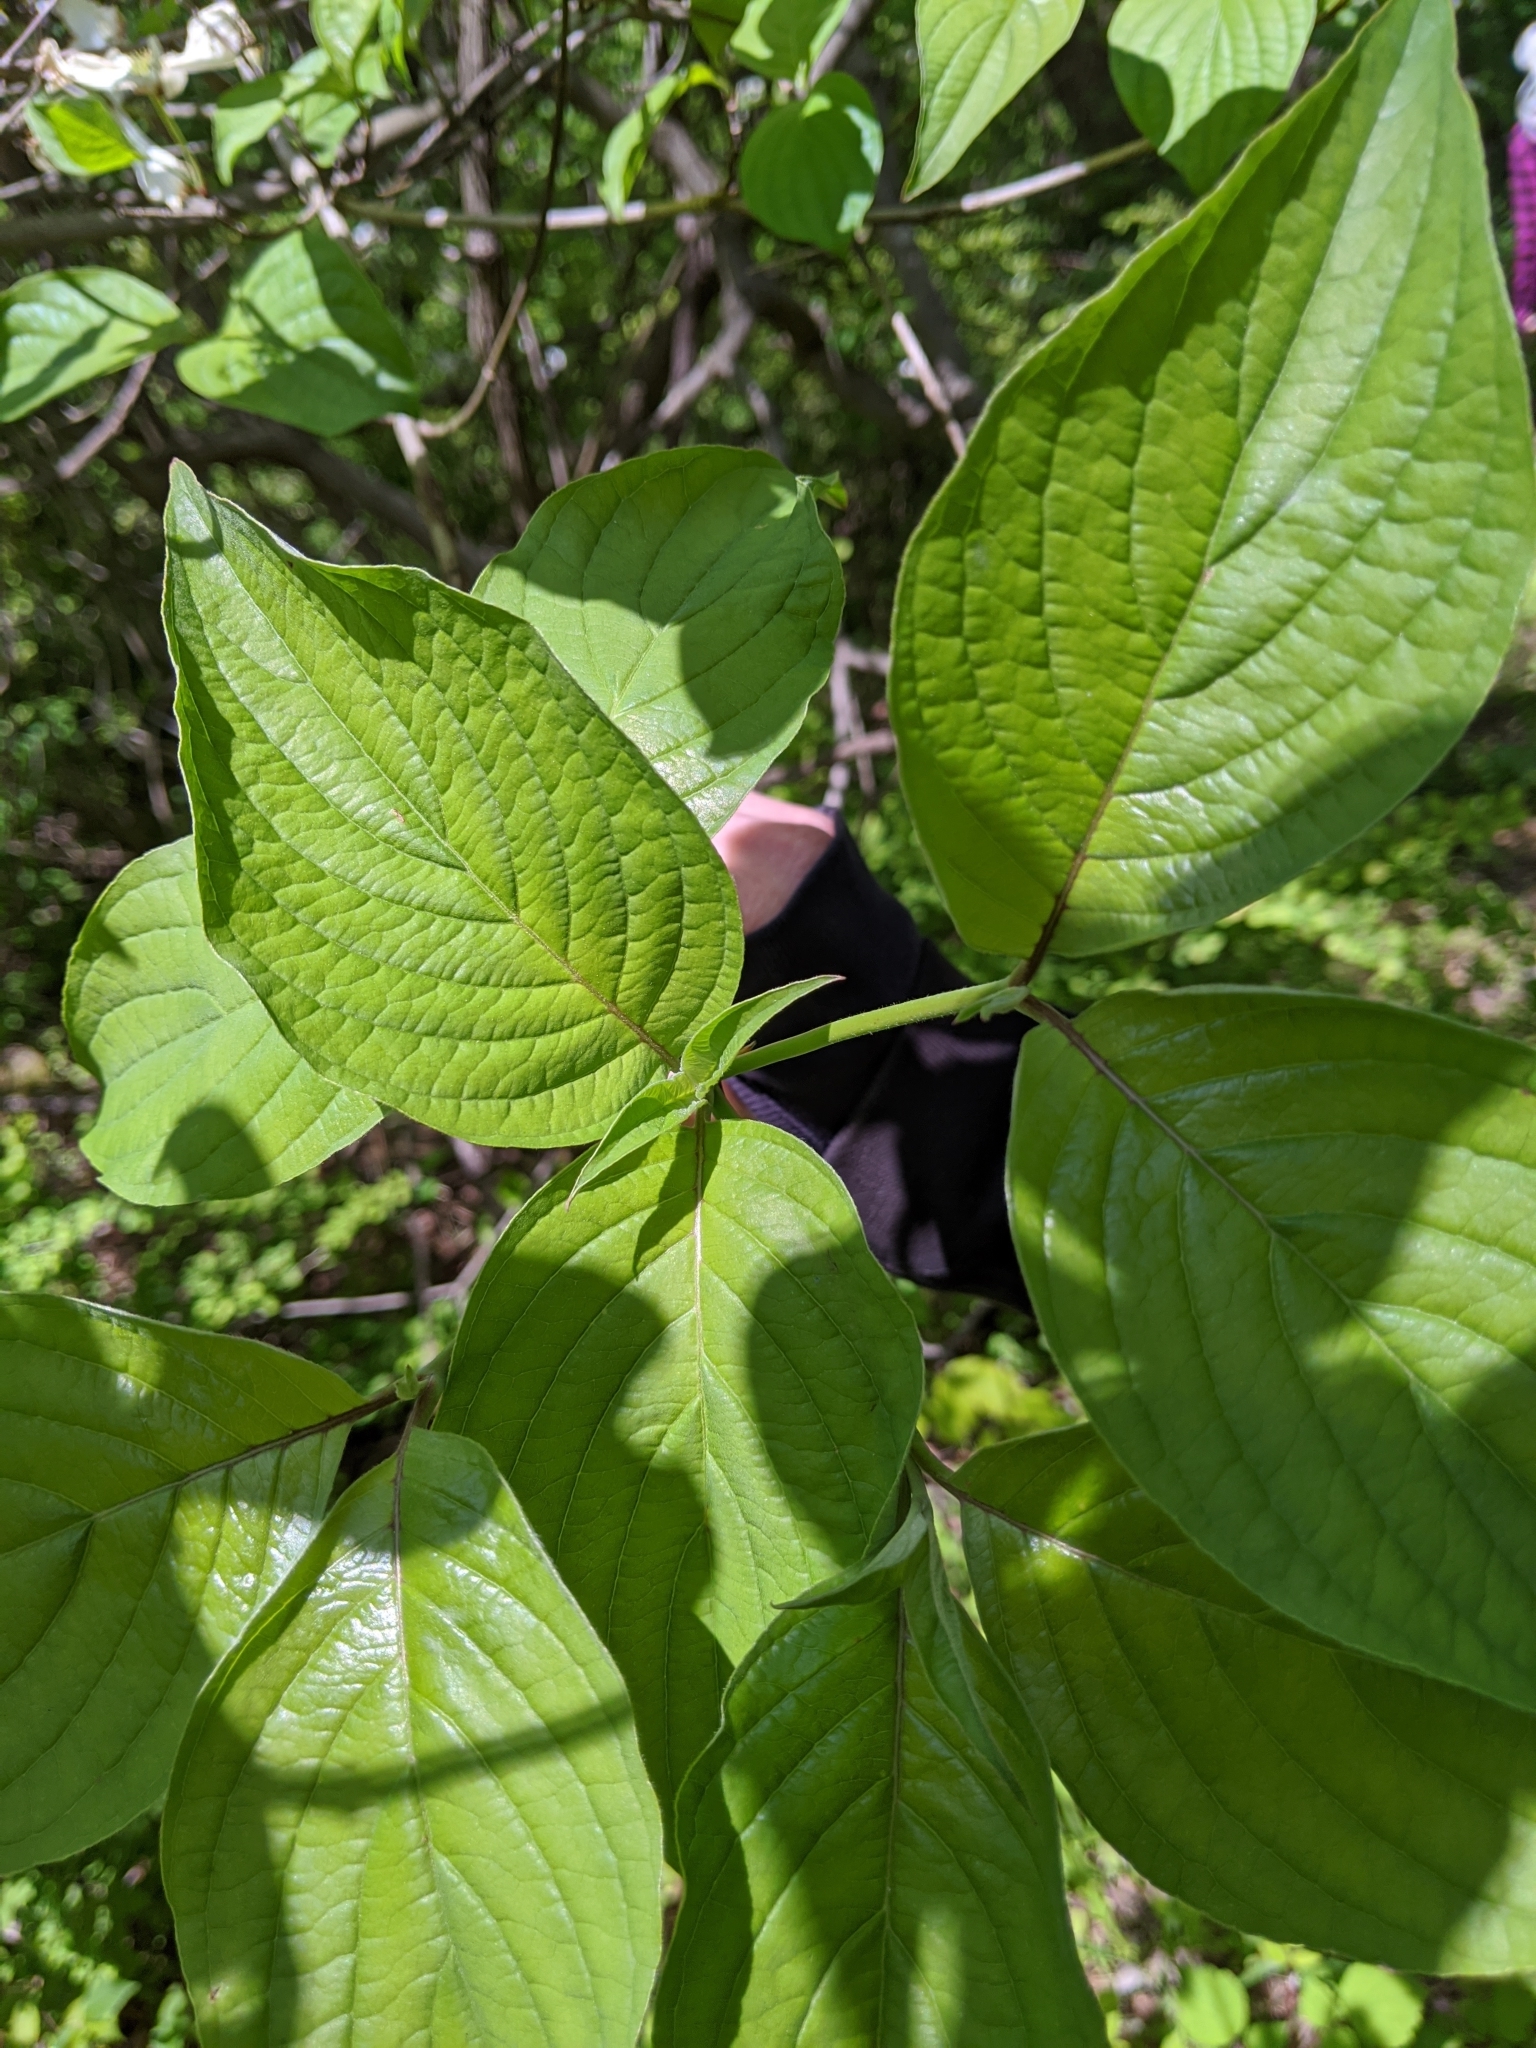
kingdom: Plantae
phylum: Tracheophyta
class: Magnoliopsida
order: Cornales
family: Cornaceae
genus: Cornus
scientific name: Cornus florida
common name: Flowering dogwood
